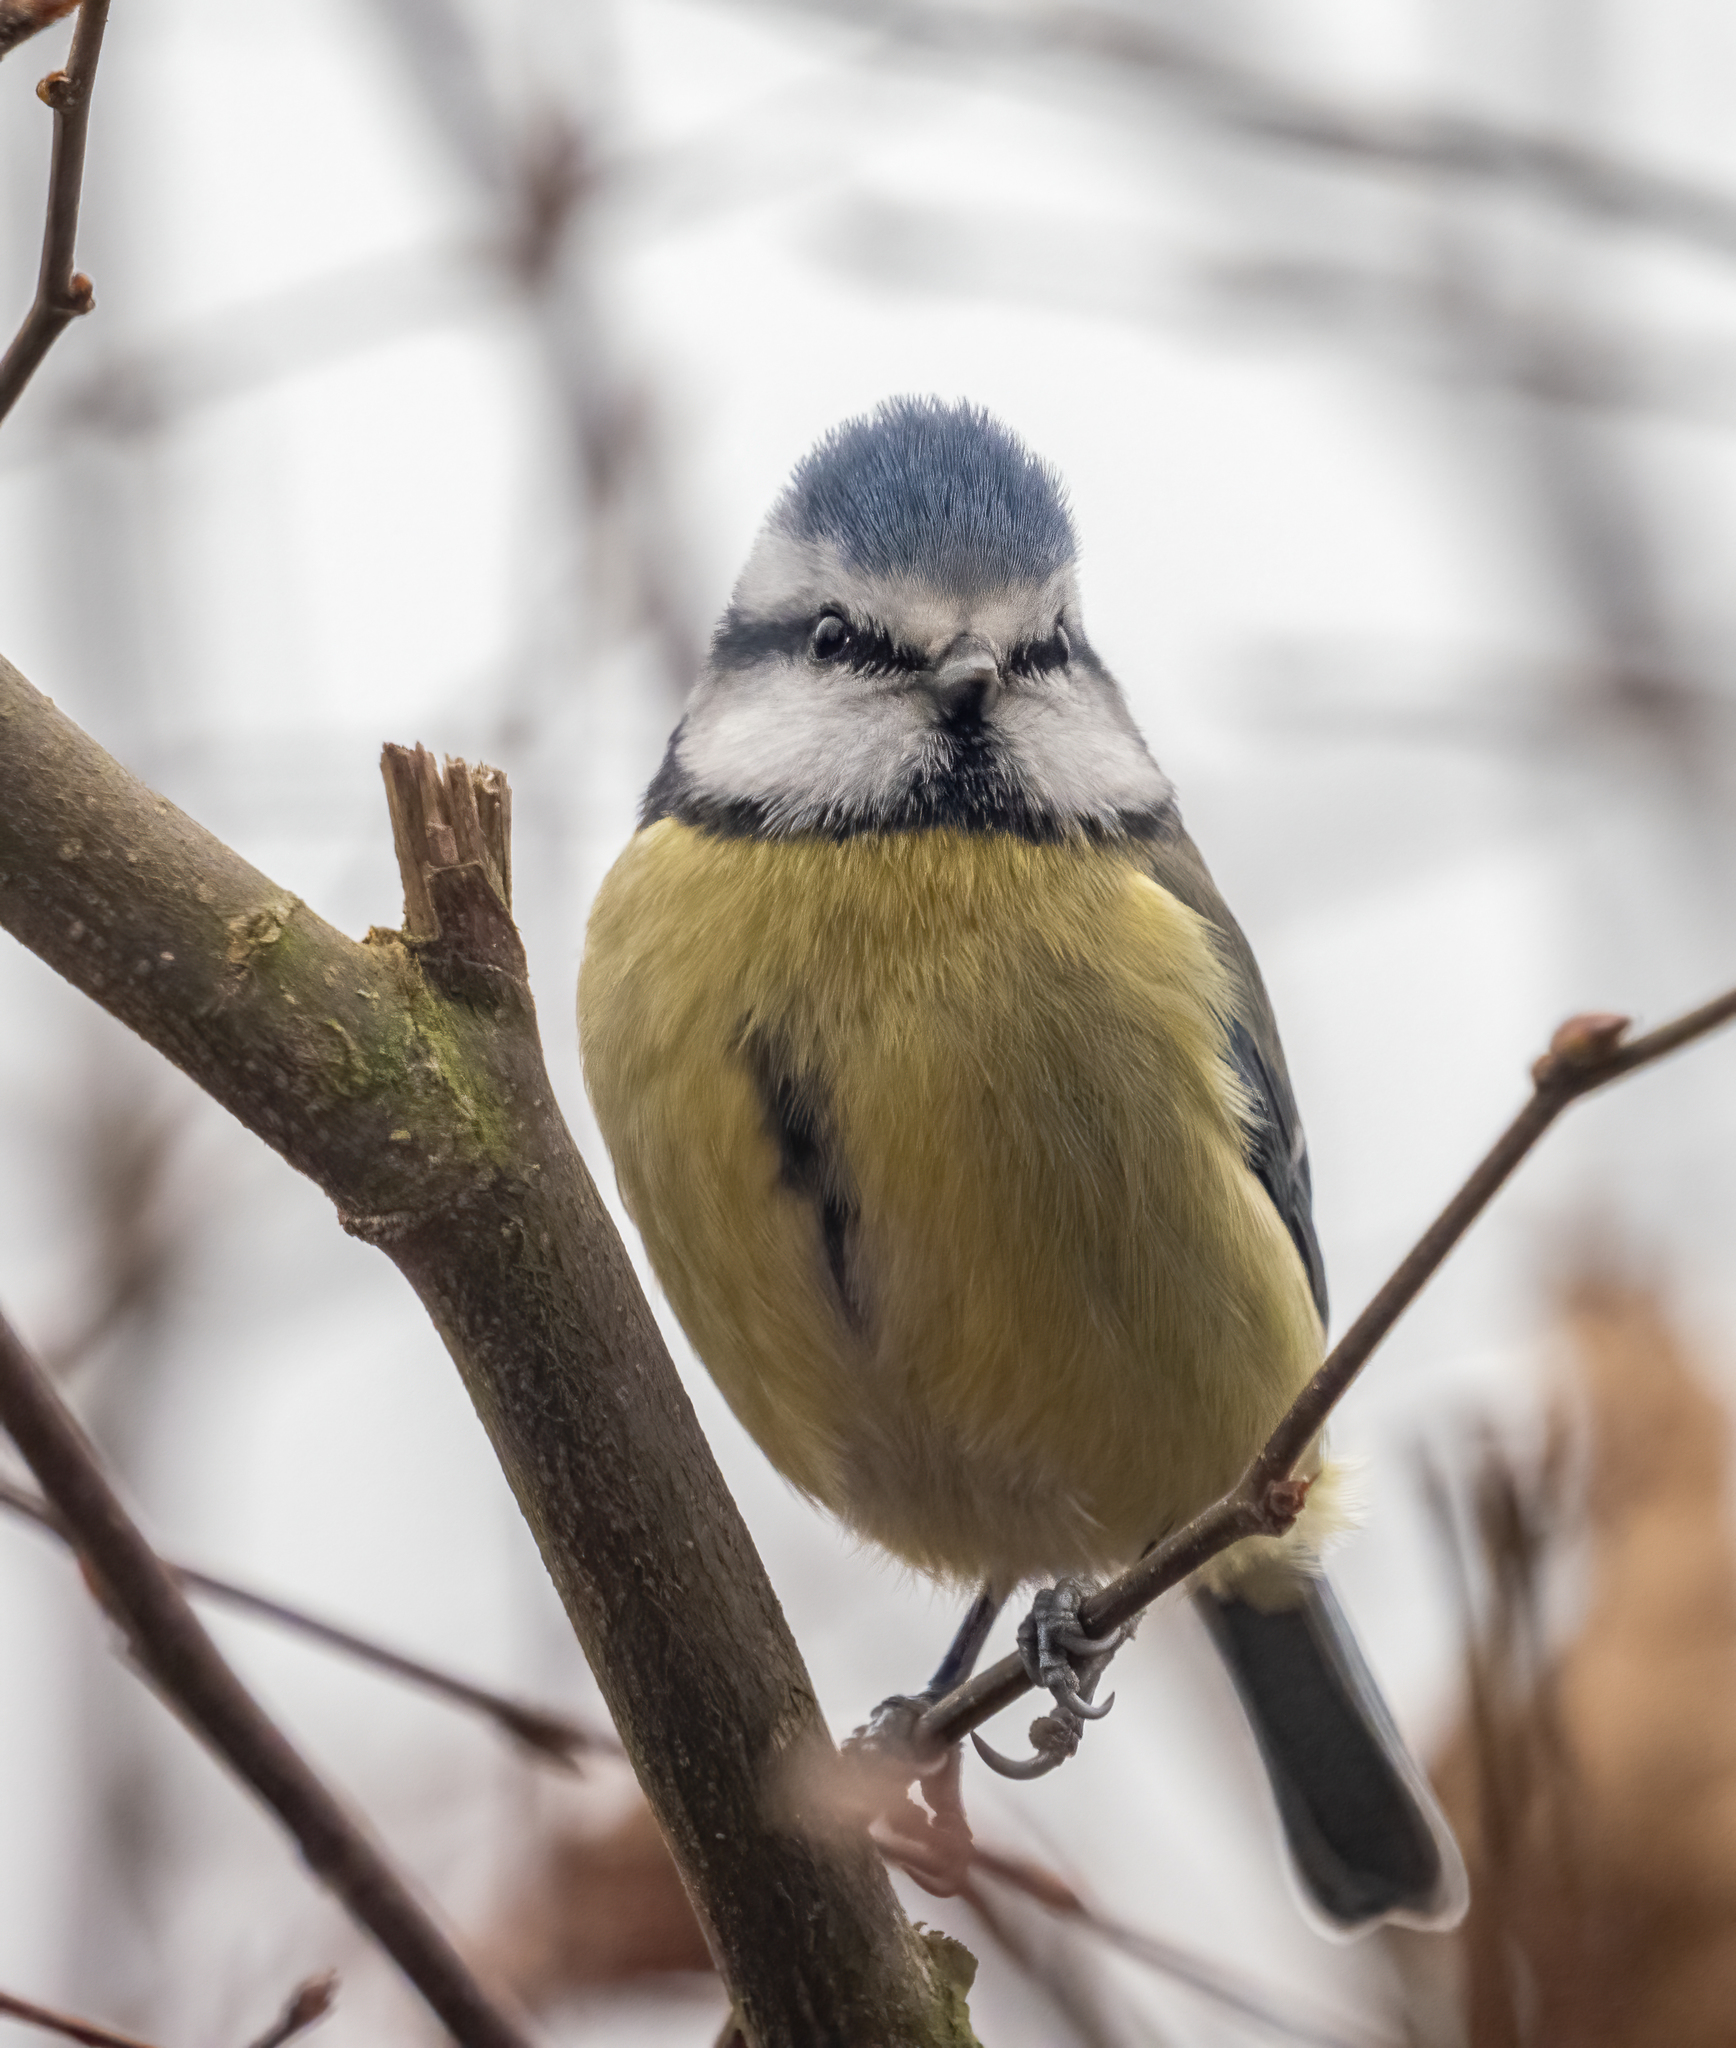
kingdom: Animalia
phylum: Chordata
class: Aves
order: Passeriformes
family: Paridae
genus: Cyanistes
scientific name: Cyanistes caeruleus
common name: Eurasian blue tit
